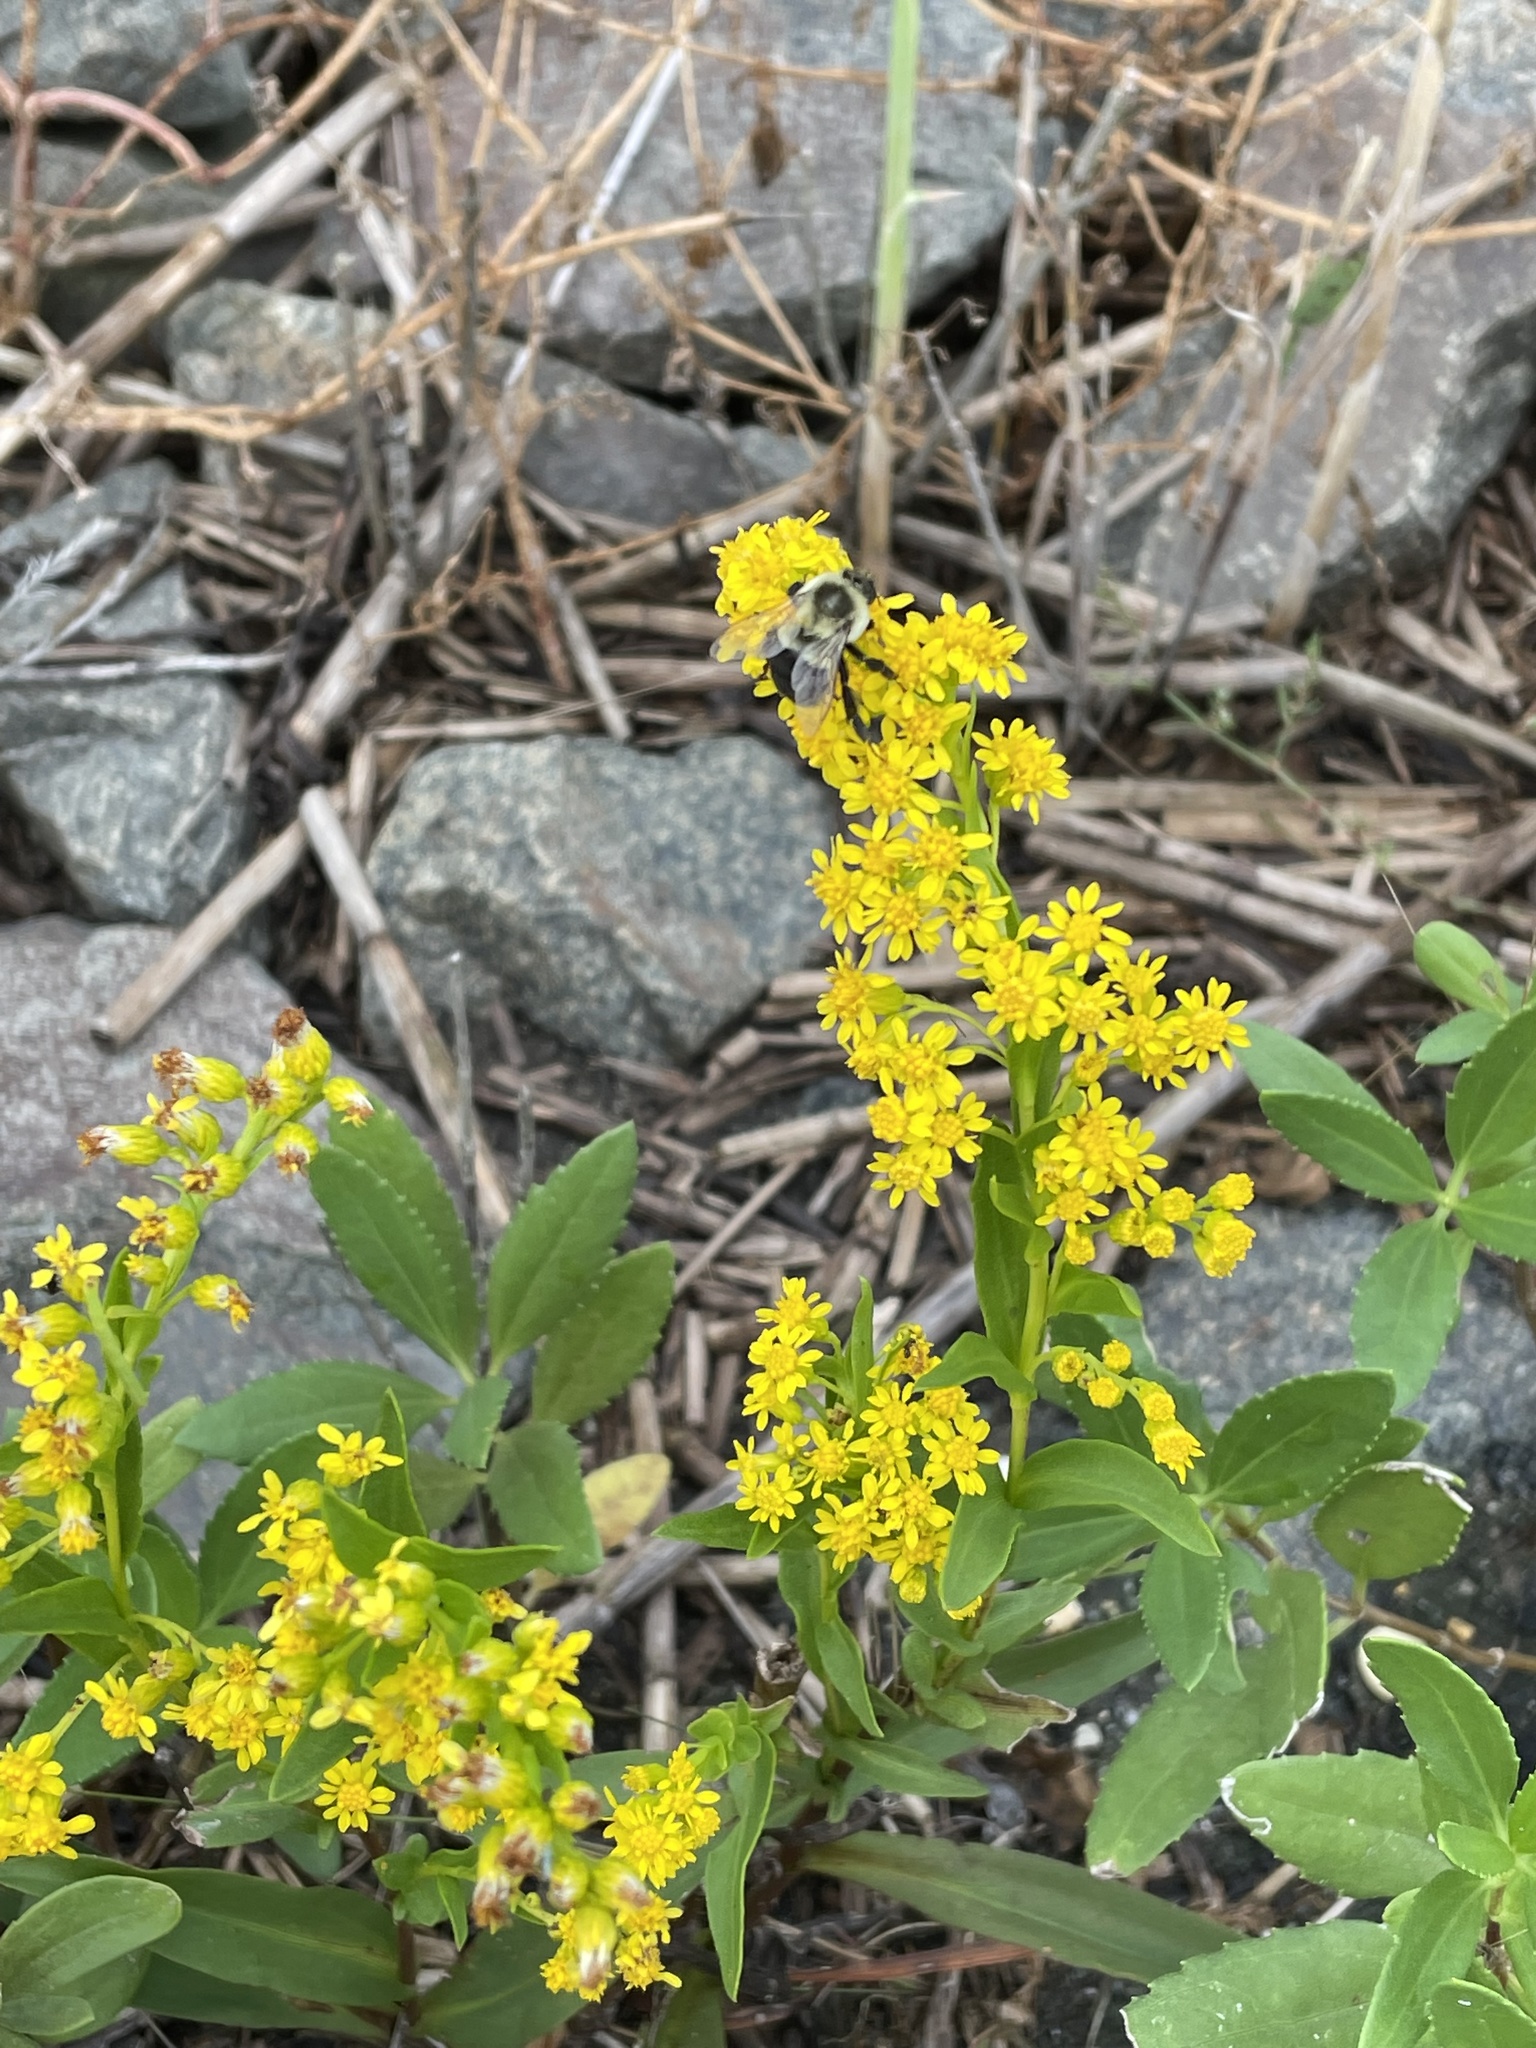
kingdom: Plantae
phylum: Tracheophyta
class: Magnoliopsida
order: Asterales
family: Asteraceae
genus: Solidago
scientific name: Solidago sempervirens
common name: Salt-marsh goldenrod
